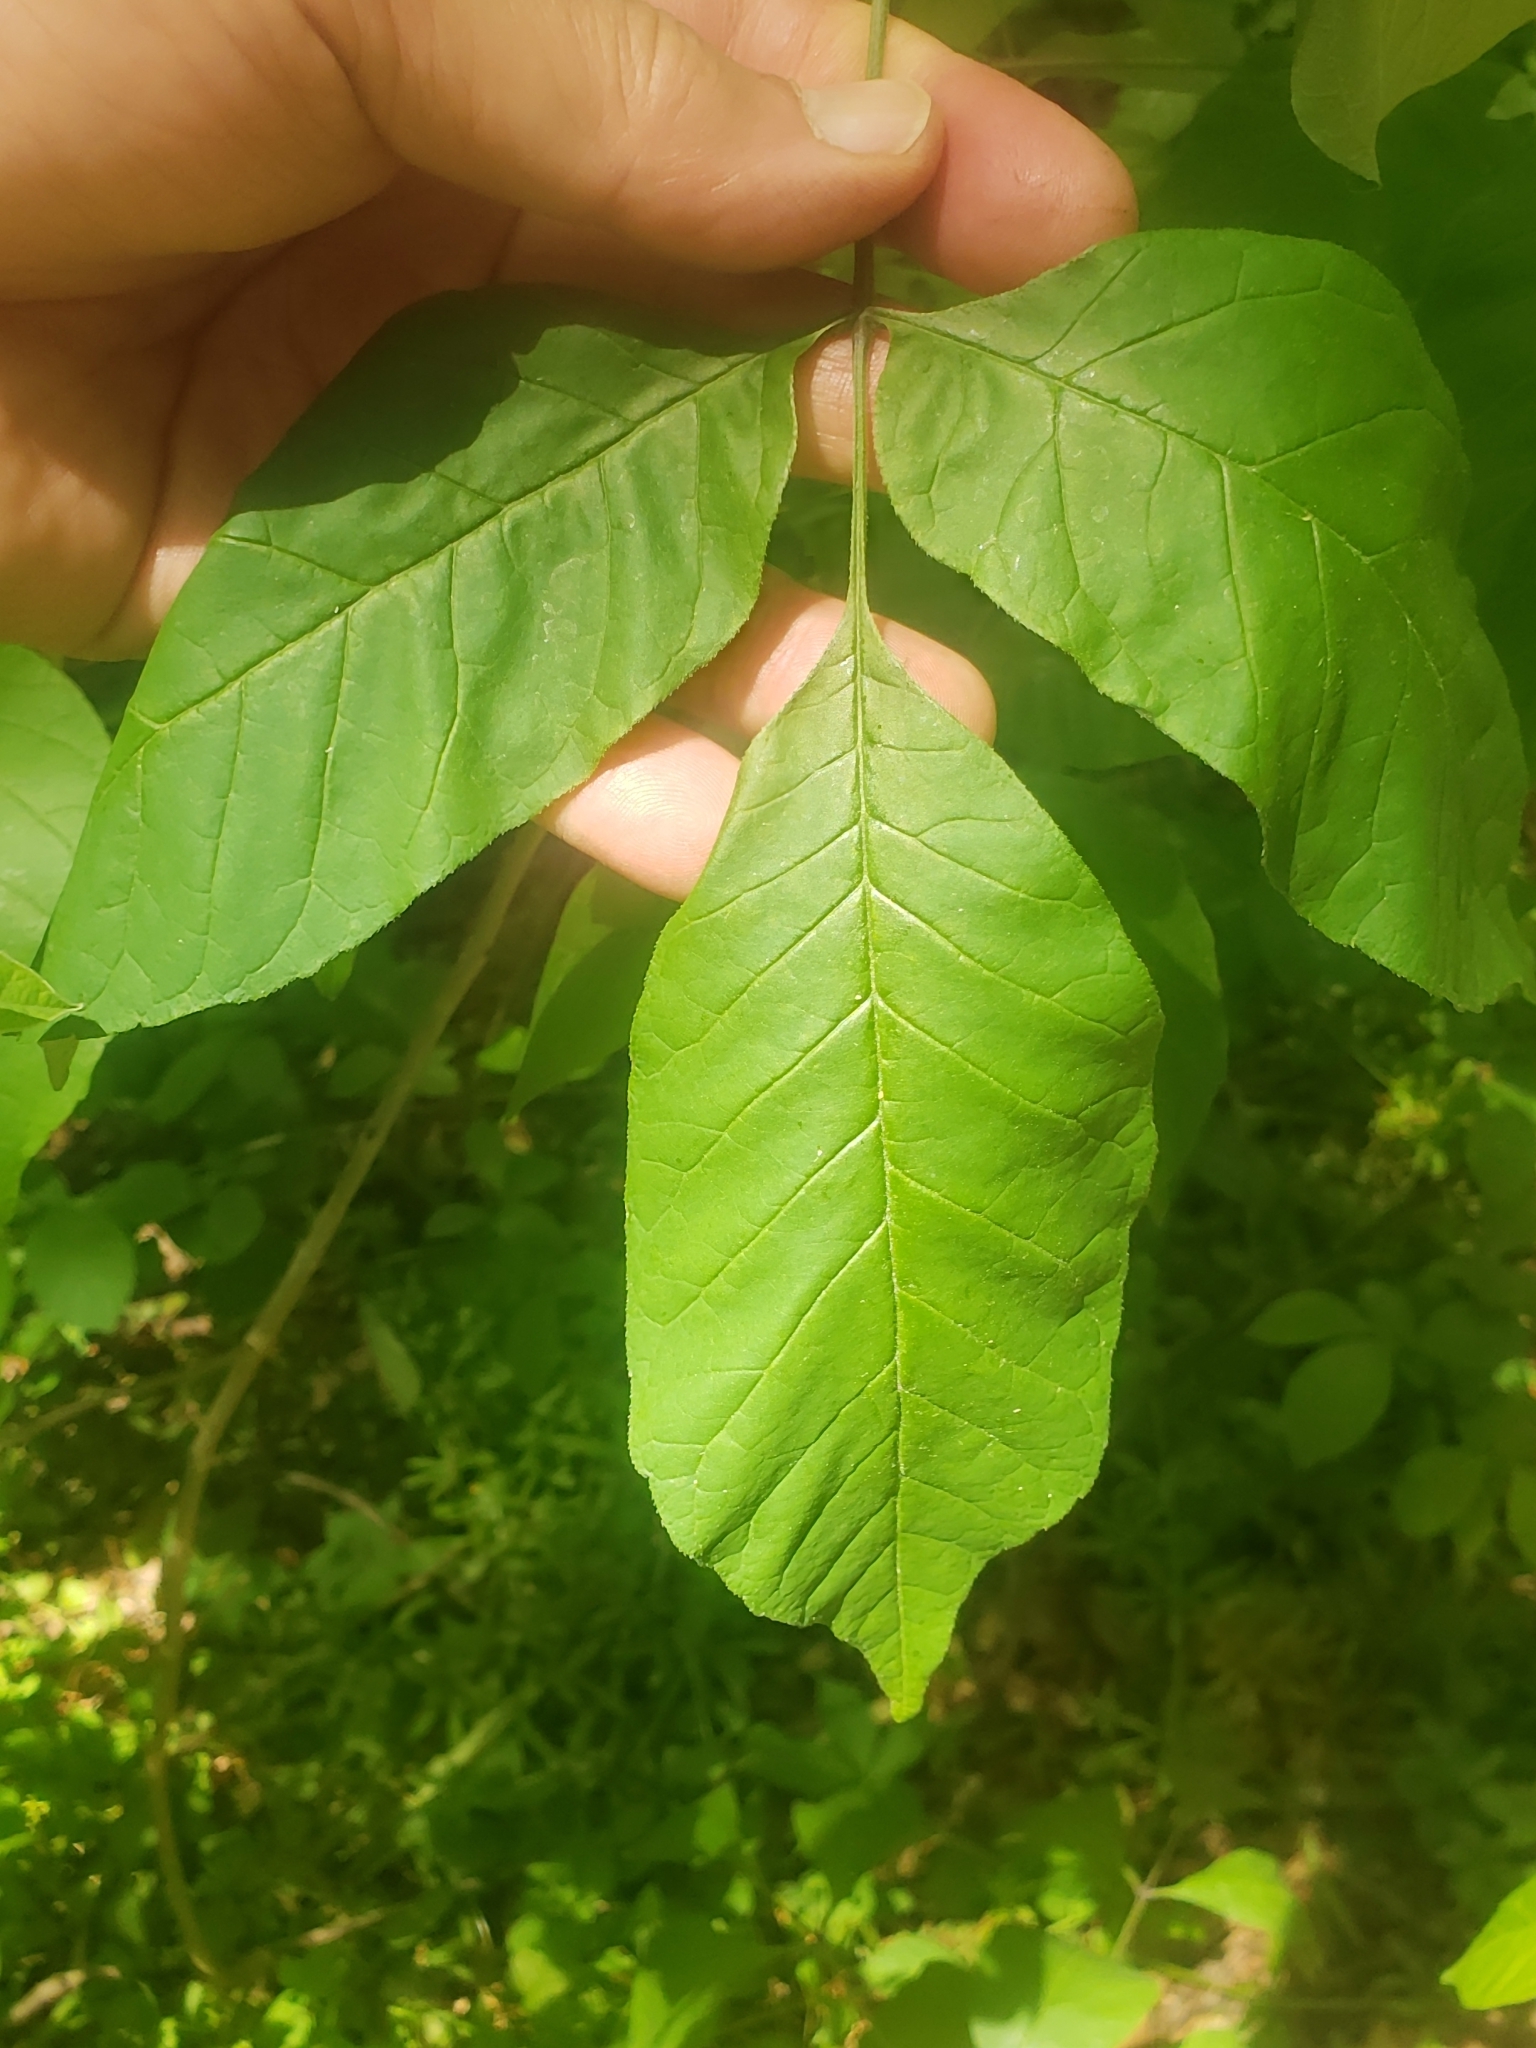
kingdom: Animalia
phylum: Arthropoda
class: Insecta
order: Diptera
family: Cecidomyiidae
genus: Dasineura
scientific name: Dasineura tumidosae
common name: Ash petiole gall midge
